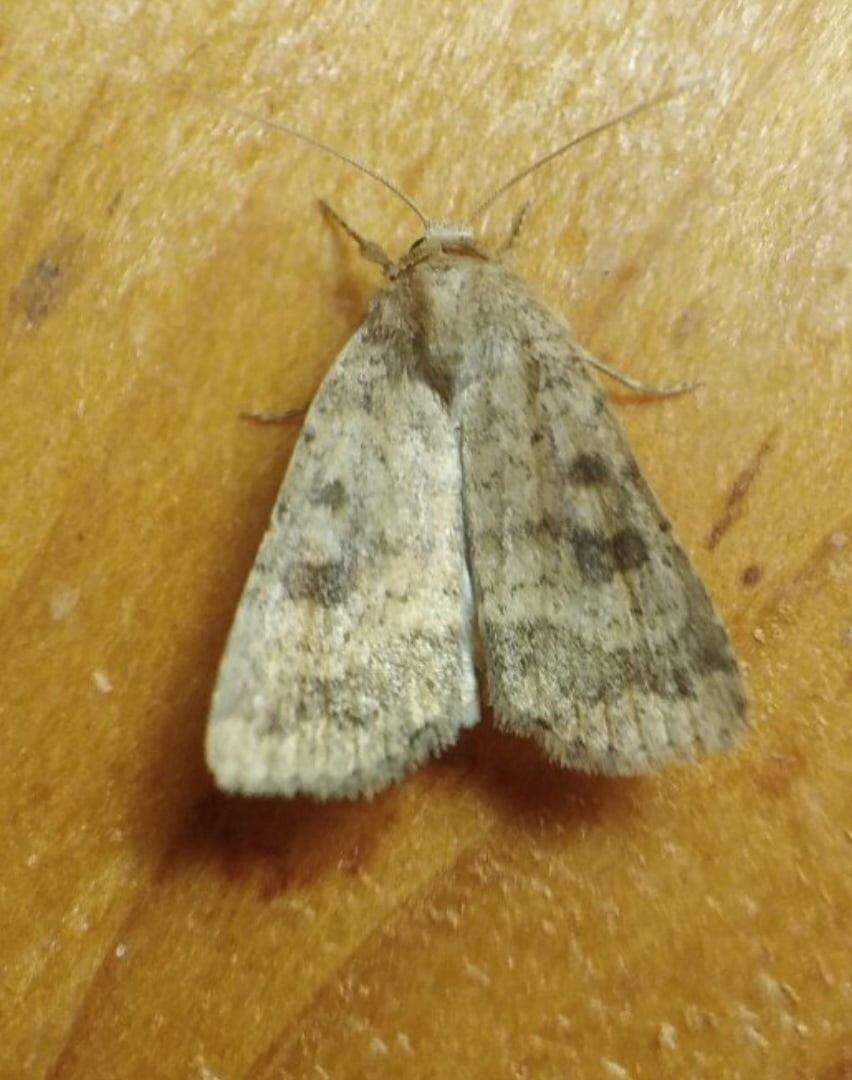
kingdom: Animalia
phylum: Arthropoda
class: Insecta
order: Lepidoptera
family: Noctuidae
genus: Caradrina
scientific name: Caradrina morpheus
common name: Mottled rustic
